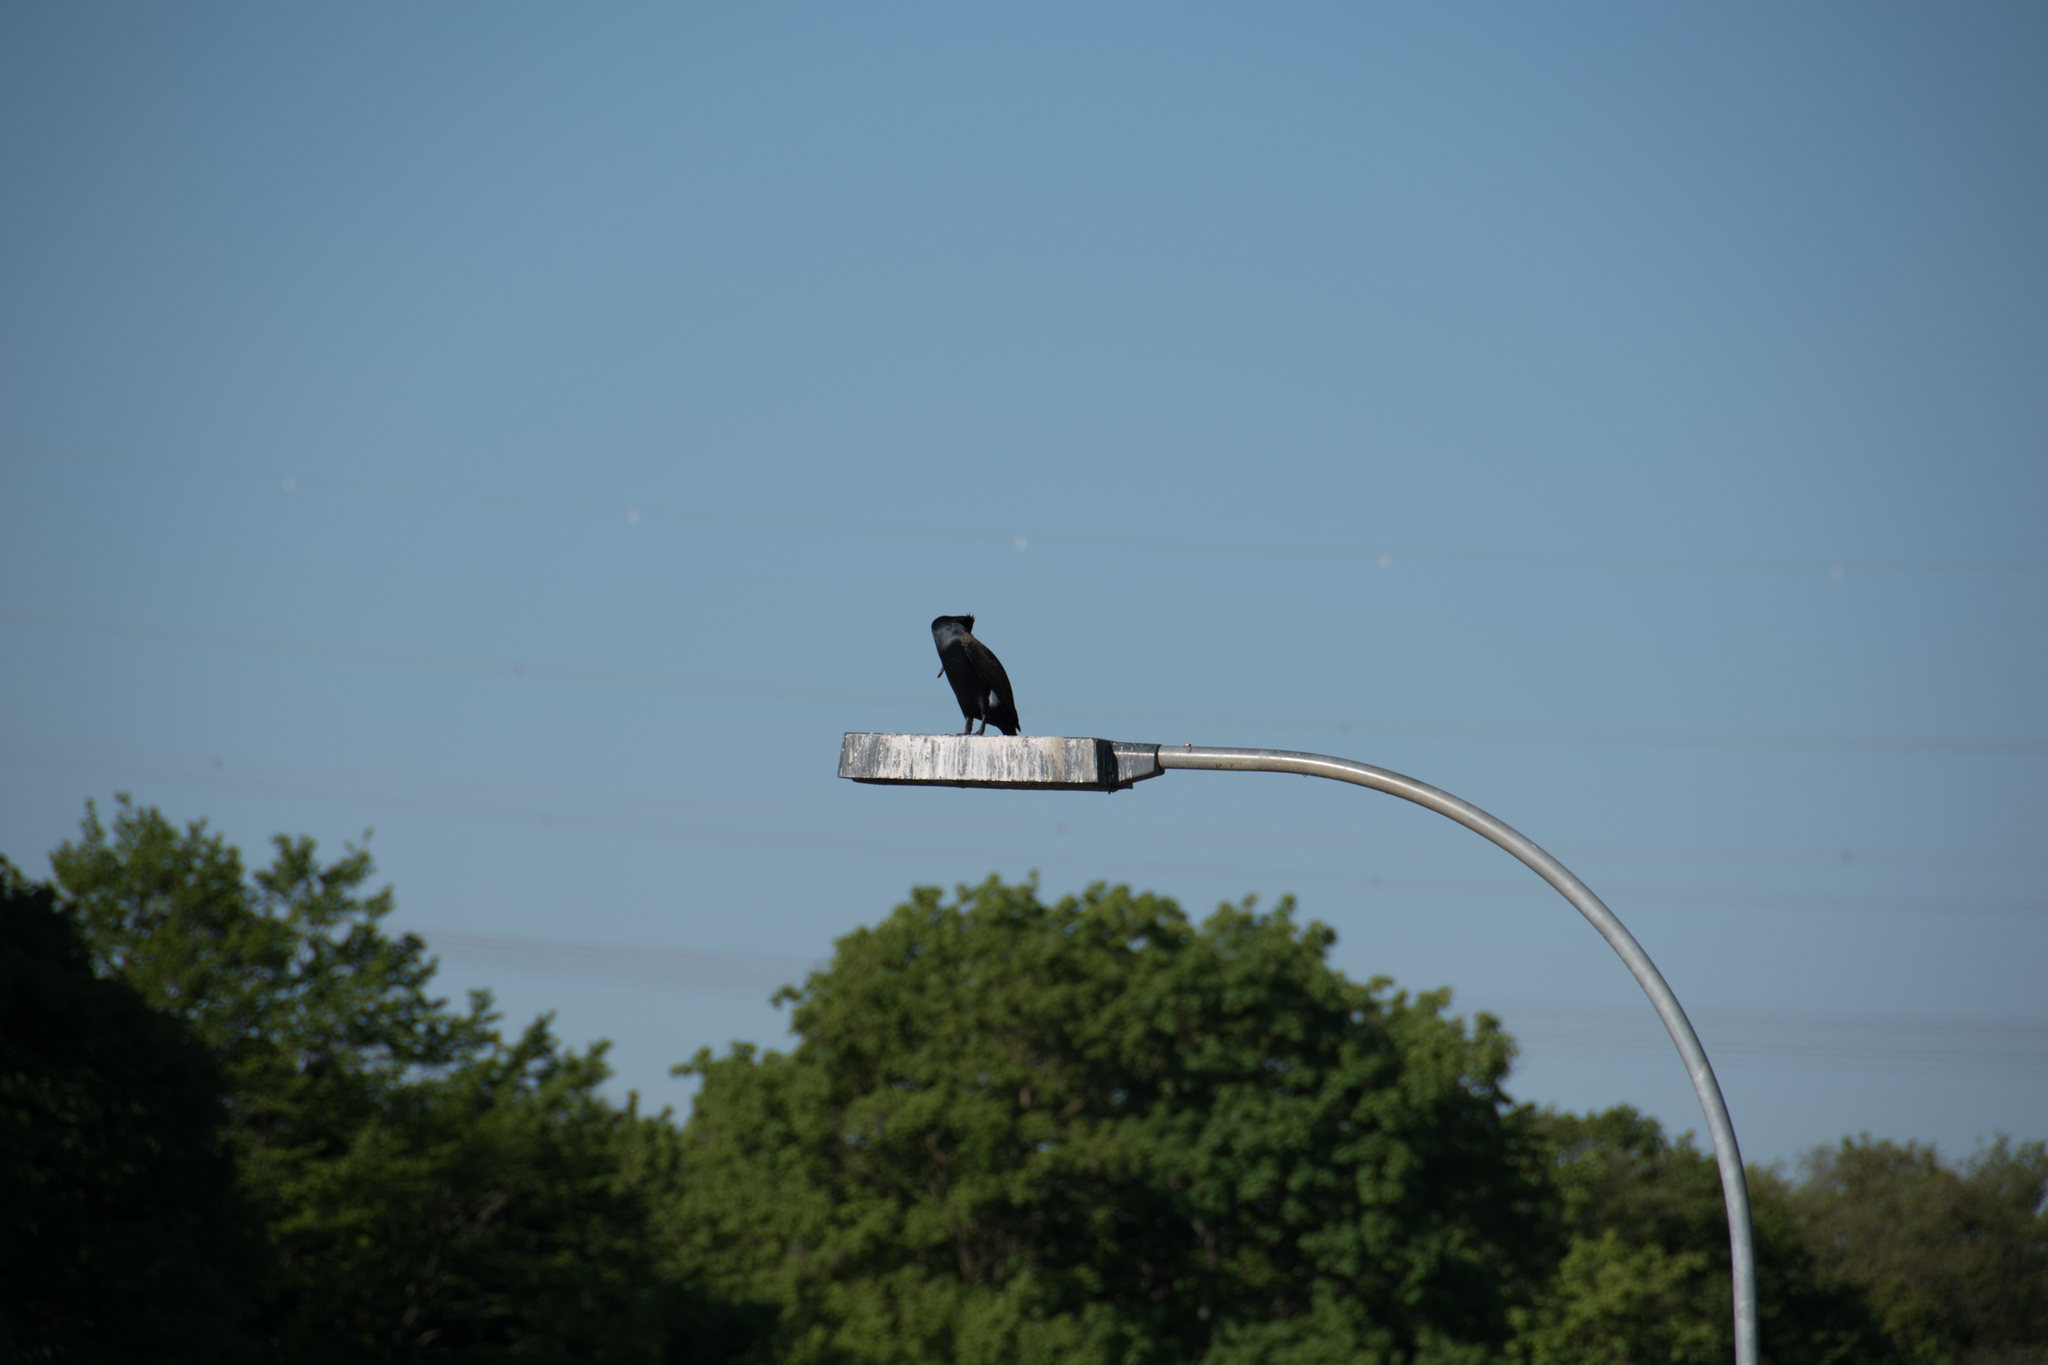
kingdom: Animalia
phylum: Chordata
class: Aves
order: Suliformes
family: Phalacrocoracidae
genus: Phalacrocorax
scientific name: Phalacrocorax carbo
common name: Great cormorant
